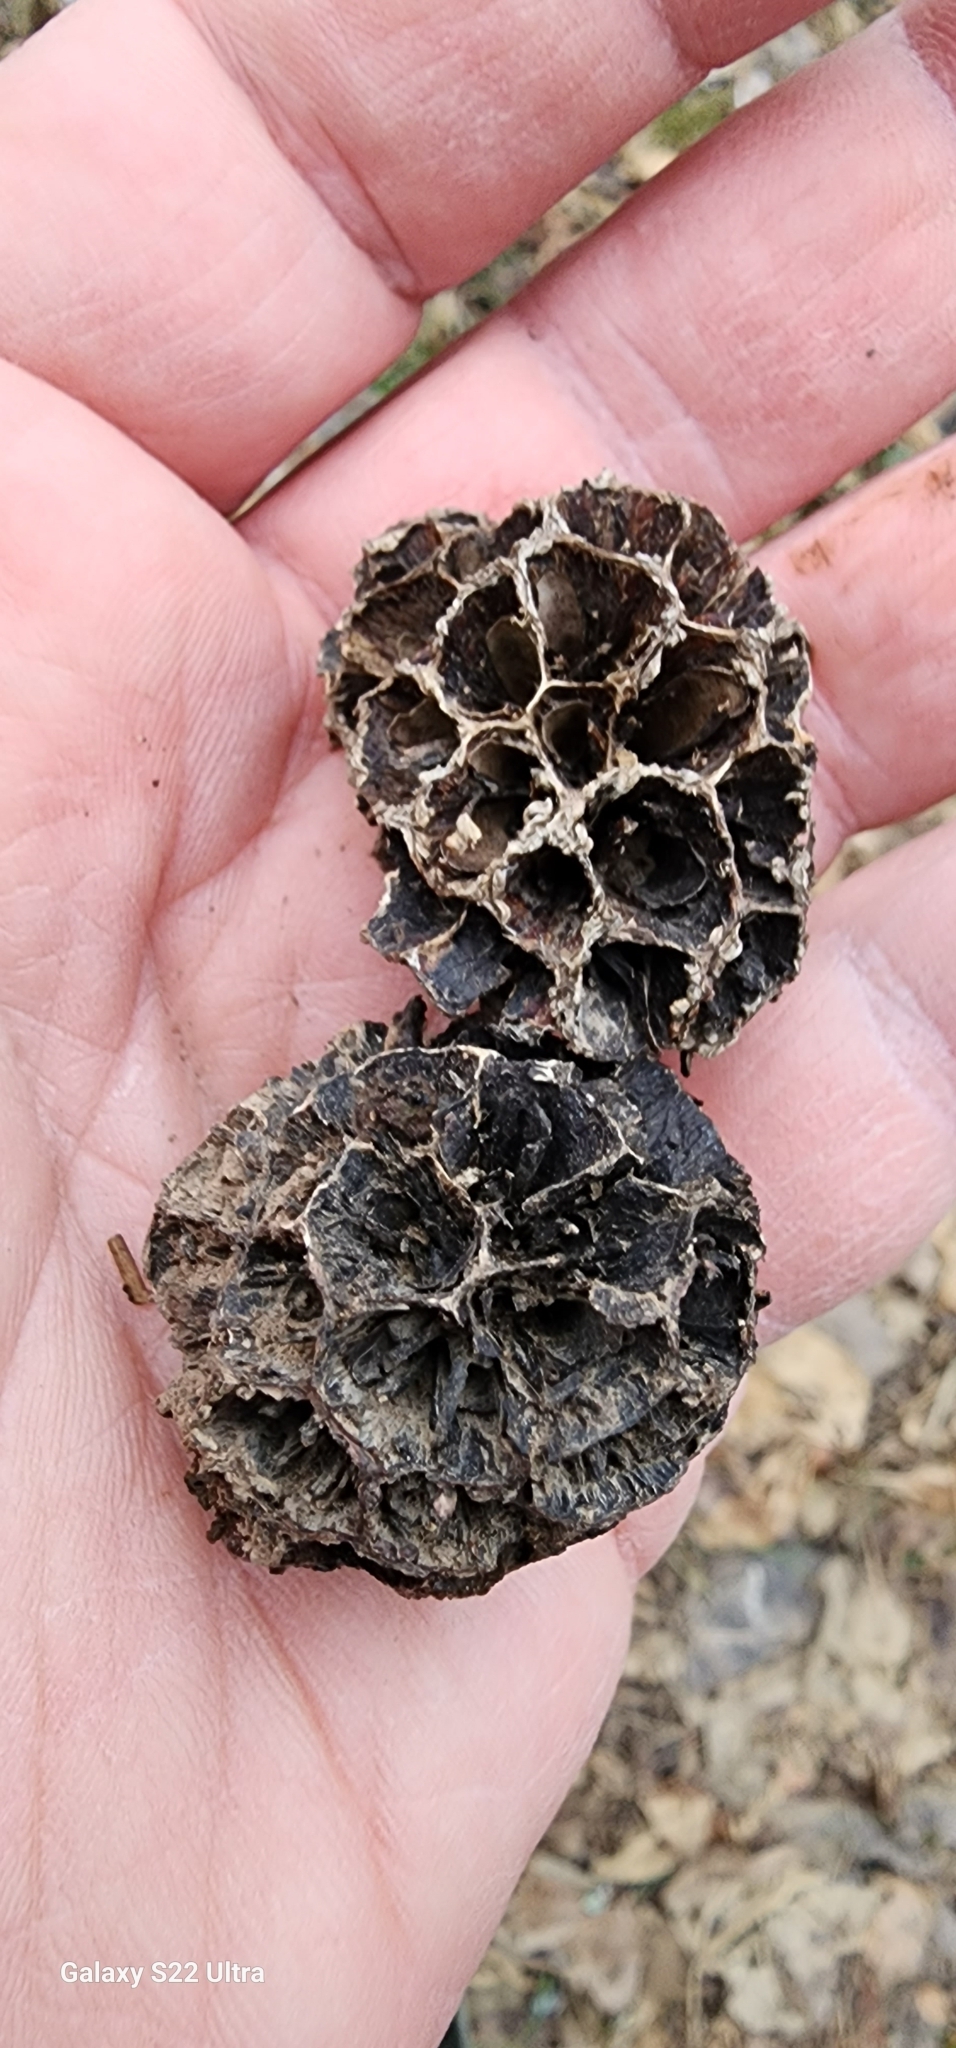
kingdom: Plantae
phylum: Tracheophyta
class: Magnoliopsida
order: Saxifragales
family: Altingiaceae
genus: Liquidambar
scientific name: Liquidambar styraciflua
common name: Sweet gum
